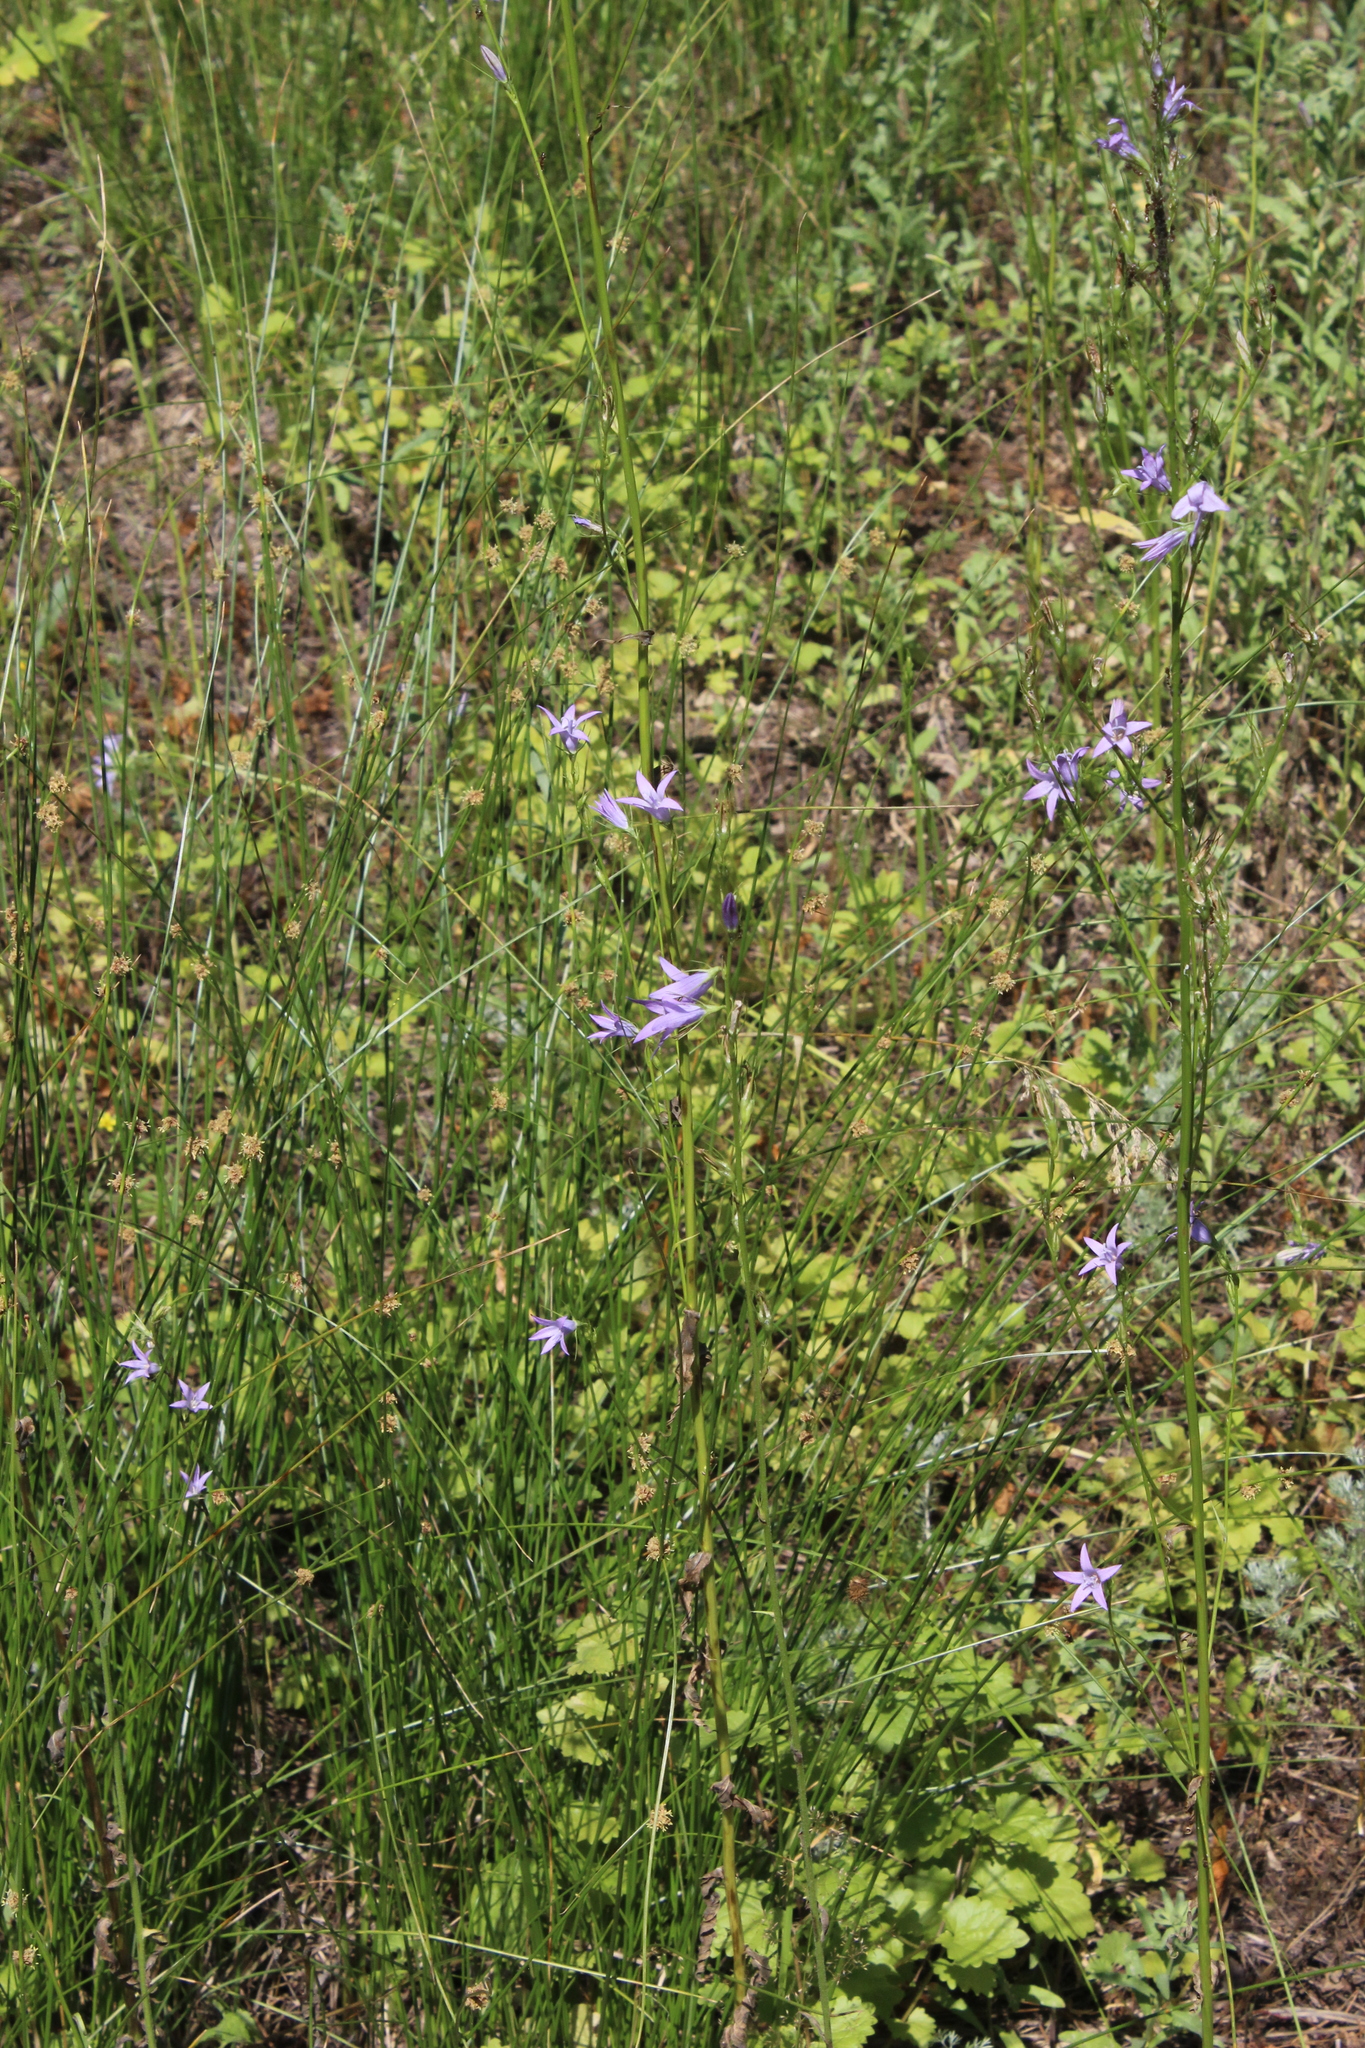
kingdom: Plantae
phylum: Tracheophyta
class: Magnoliopsida
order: Asterales
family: Campanulaceae
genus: Campanula
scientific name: Campanula rapunculus
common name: Rampion bellflower
